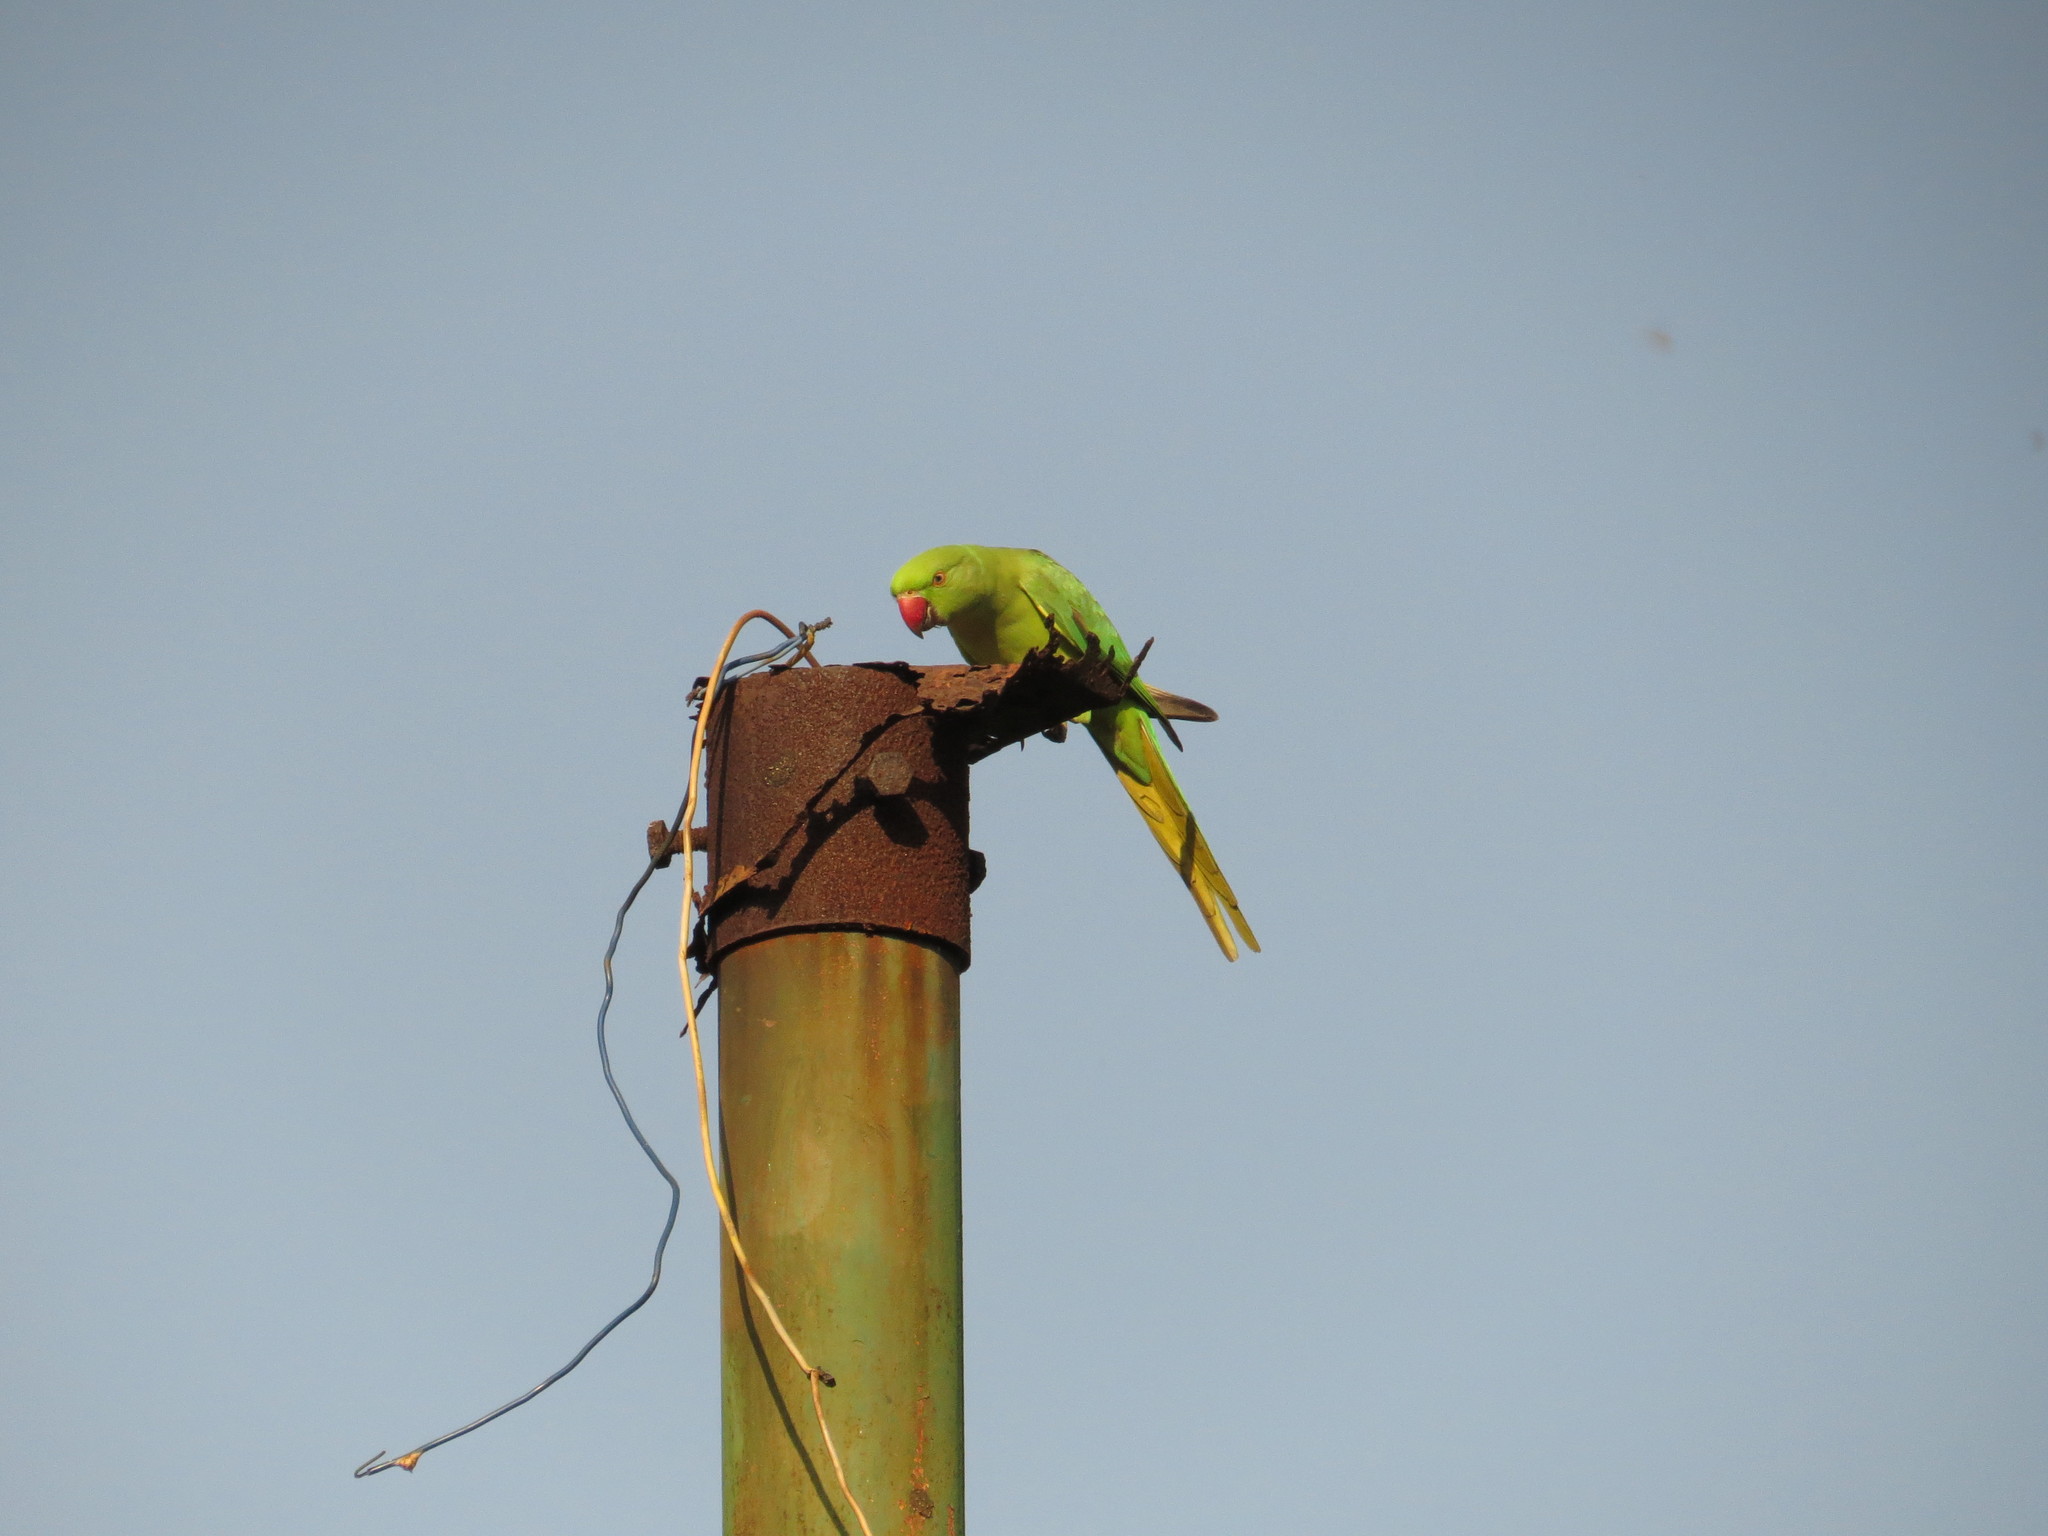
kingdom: Animalia
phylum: Chordata
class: Aves
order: Psittaciformes
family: Psittacidae
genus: Psittacula
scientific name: Psittacula krameri
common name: Rose-ringed parakeet
